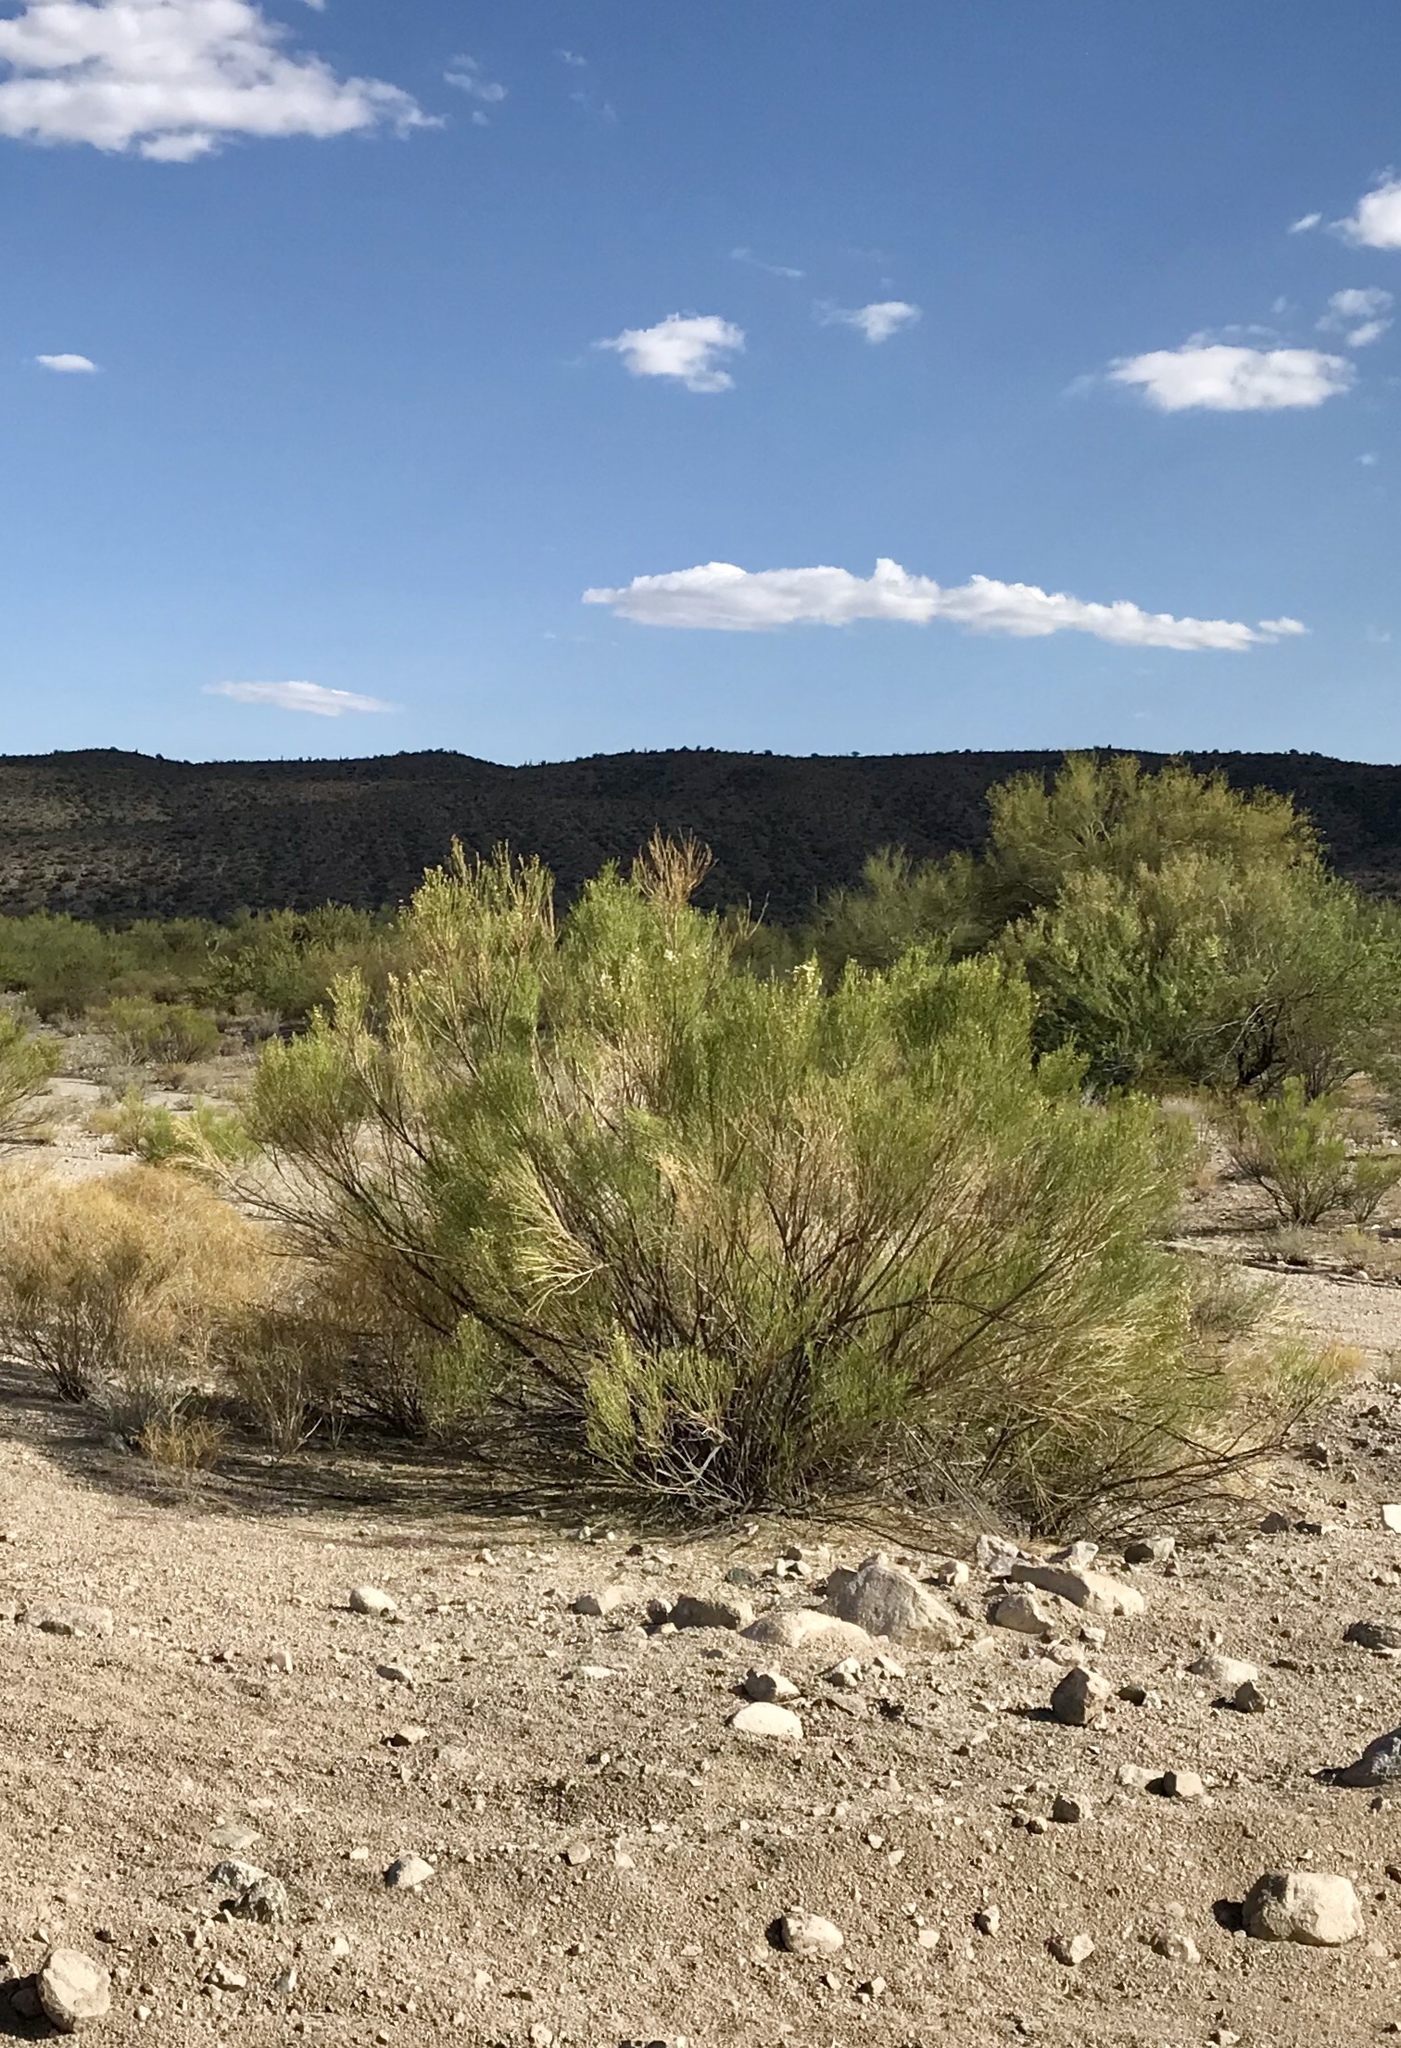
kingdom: Plantae
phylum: Tracheophyta
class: Magnoliopsida
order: Asterales
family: Asteraceae
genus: Baccharis
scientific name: Baccharis sarothroides
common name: Desert-broom
